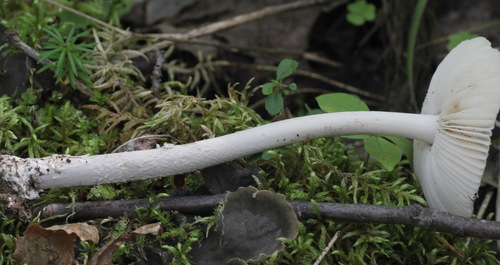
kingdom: Fungi
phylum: Basidiomycota
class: Agaricomycetes
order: Agaricales
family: Amanitaceae
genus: Amanita
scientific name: Amanita vaginata
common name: Grisette
